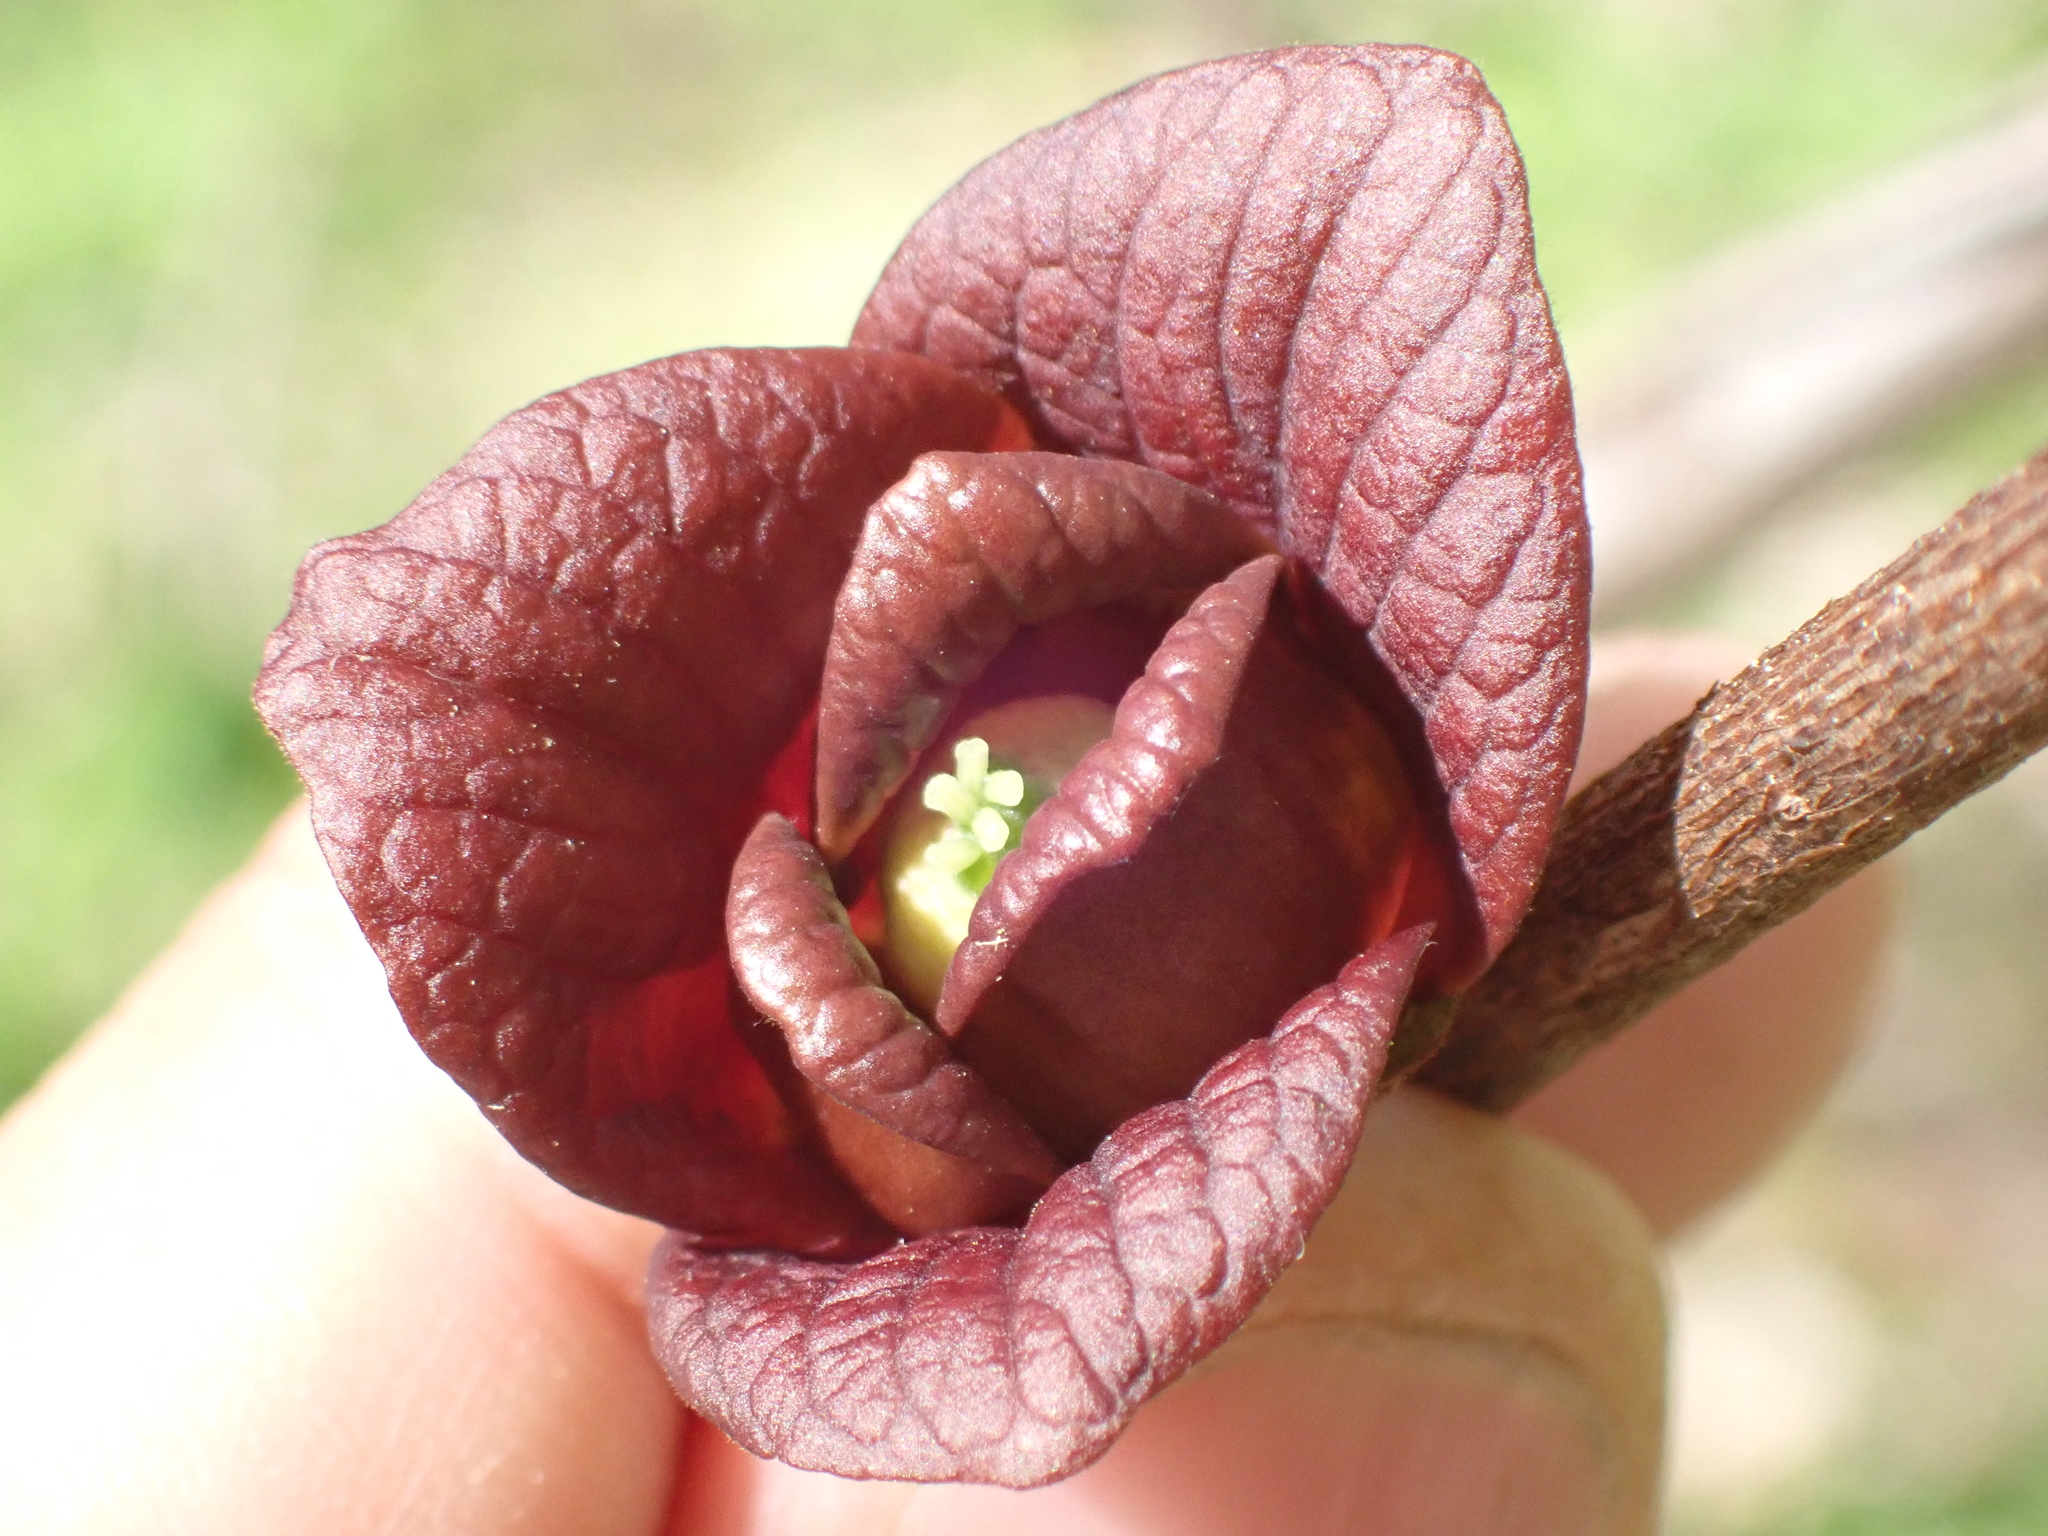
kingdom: Plantae
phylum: Tracheophyta
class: Magnoliopsida
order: Magnoliales
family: Annonaceae
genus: Asimina
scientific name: Asimina triloba
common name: Dog-banana
